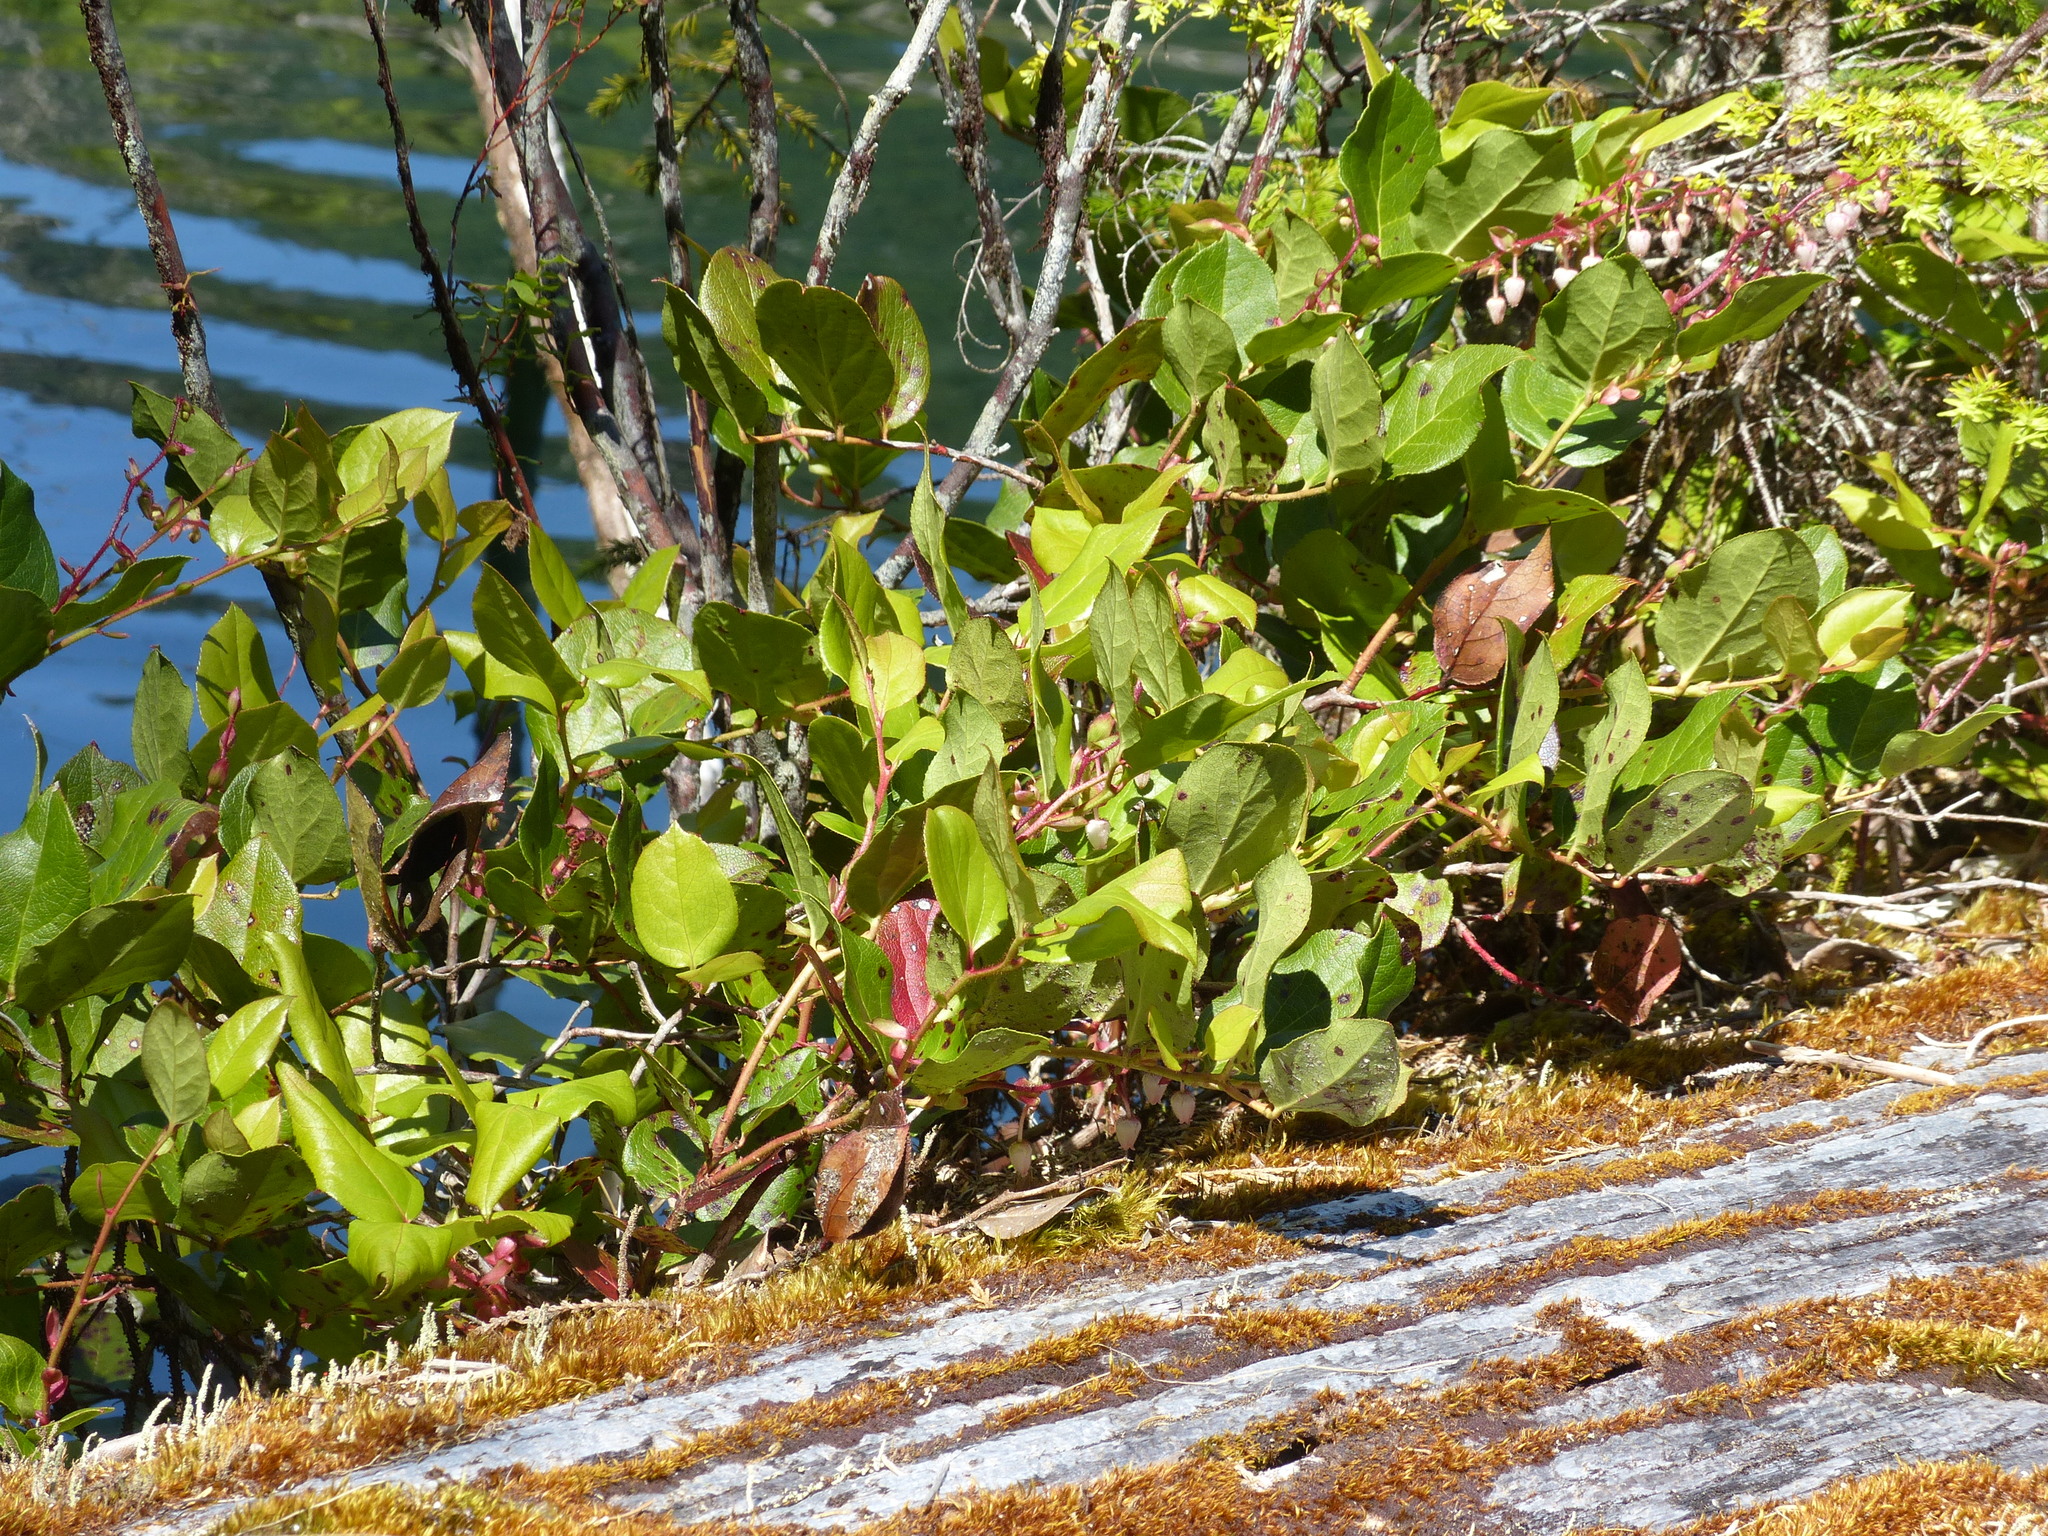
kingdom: Plantae
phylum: Tracheophyta
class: Magnoliopsida
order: Ericales
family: Ericaceae
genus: Gaultheria
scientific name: Gaultheria shallon
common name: Shallon
